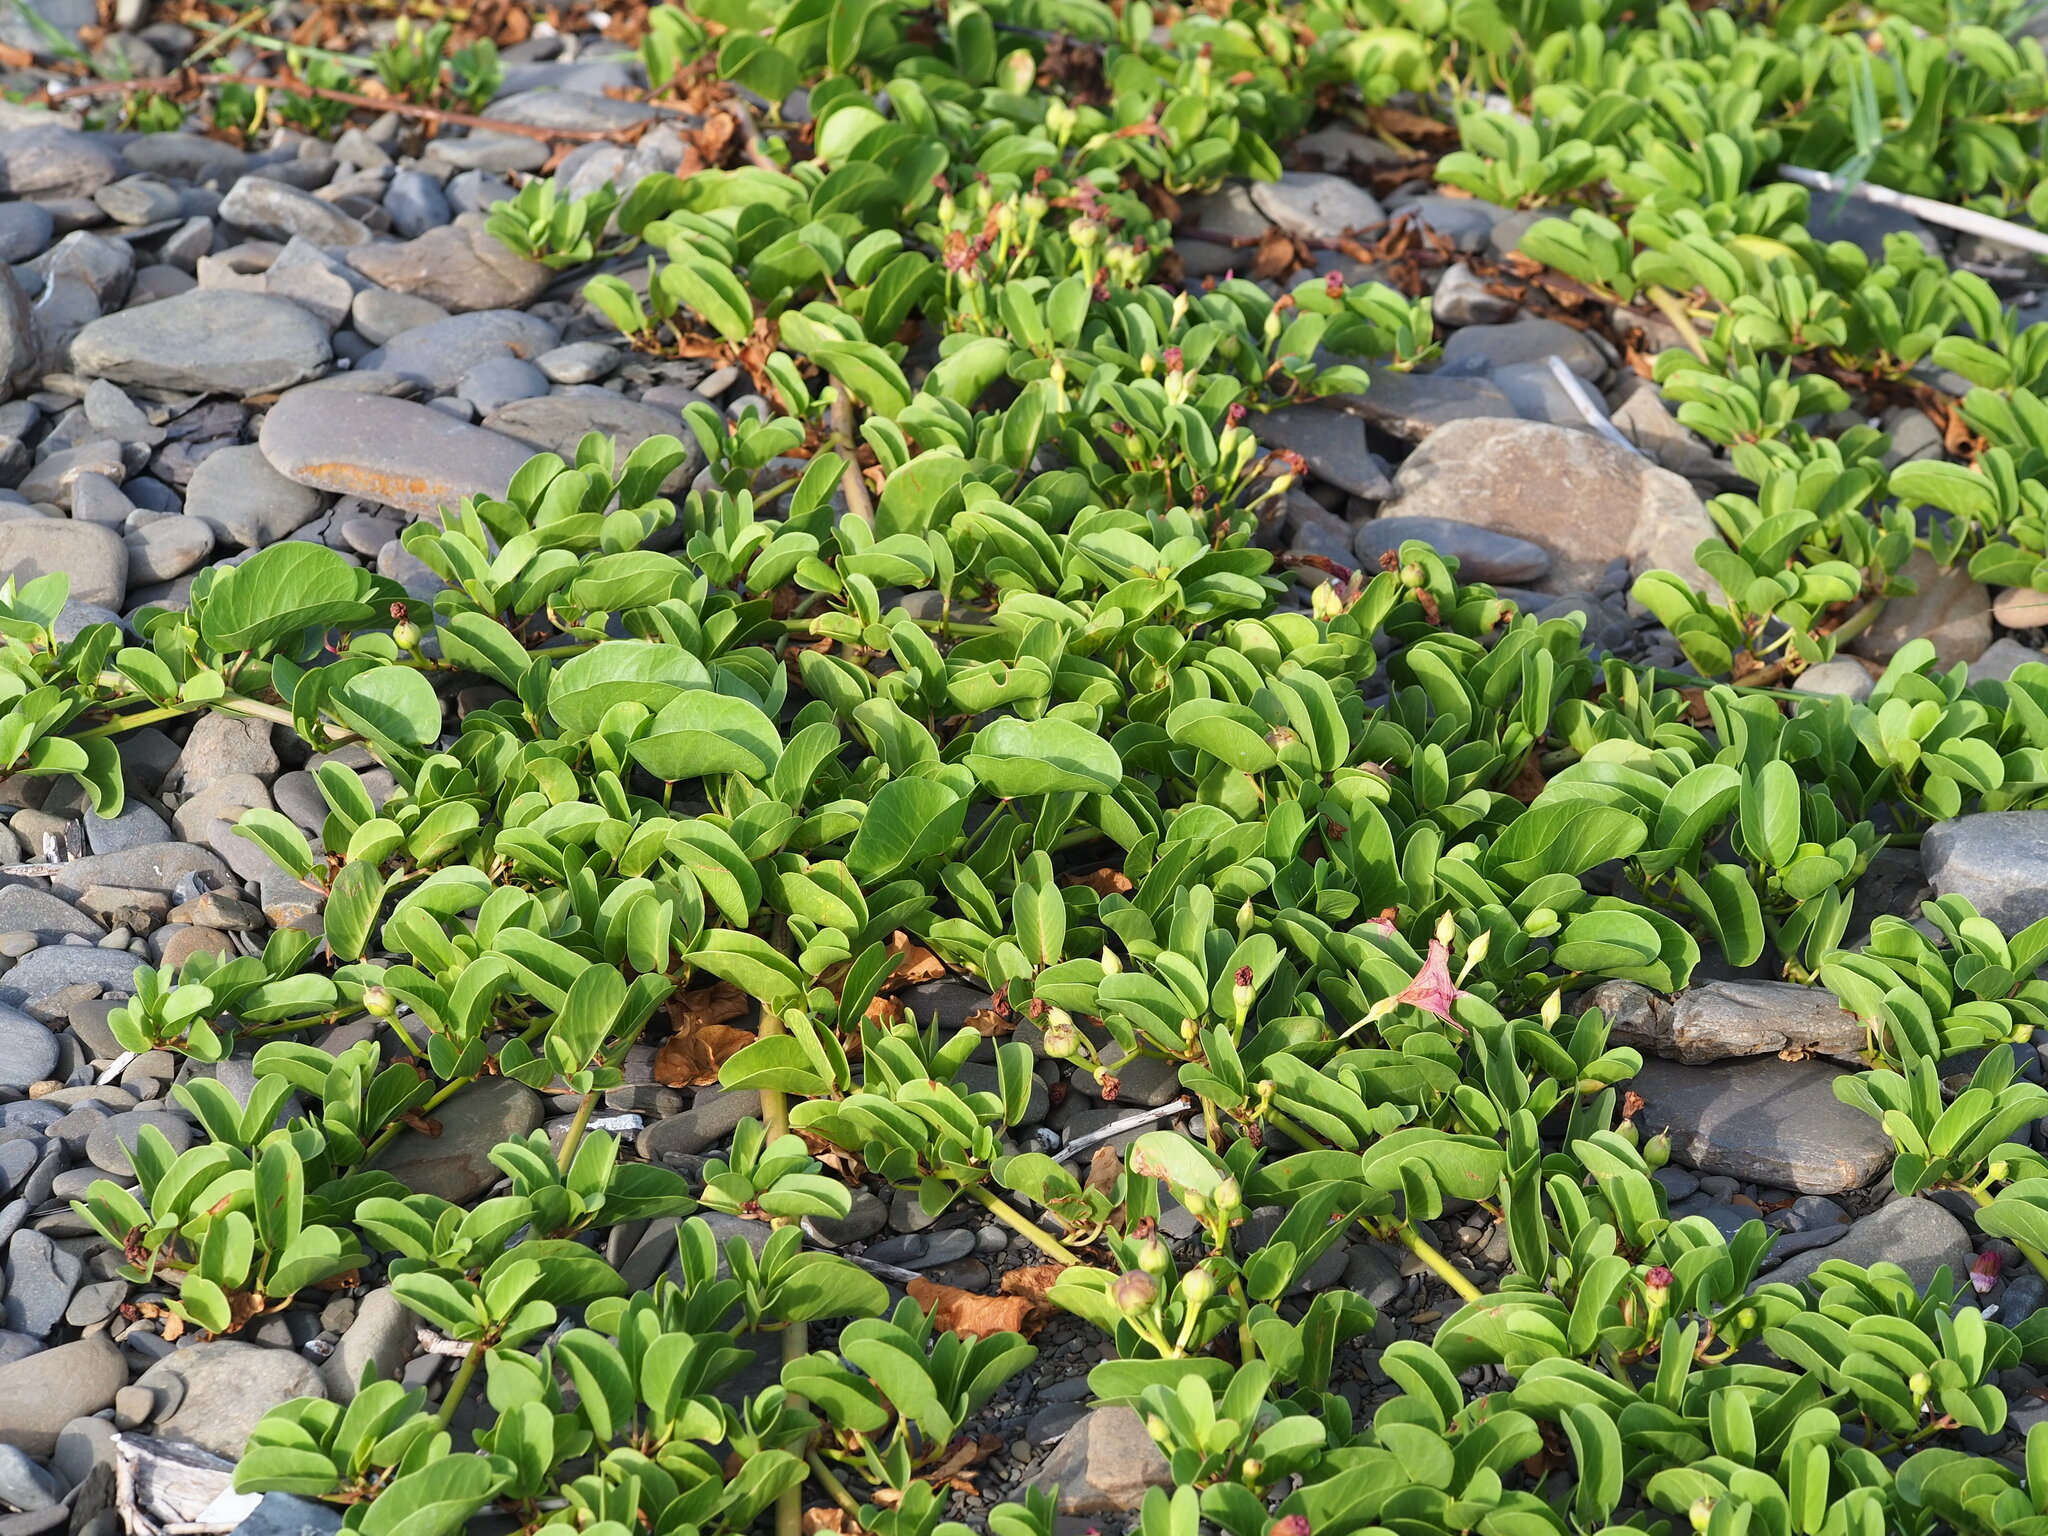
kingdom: Plantae
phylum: Tracheophyta
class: Magnoliopsida
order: Solanales
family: Convolvulaceae
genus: Ipomoea
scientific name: Ipomoea pes-caprae
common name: Beach morning glory
